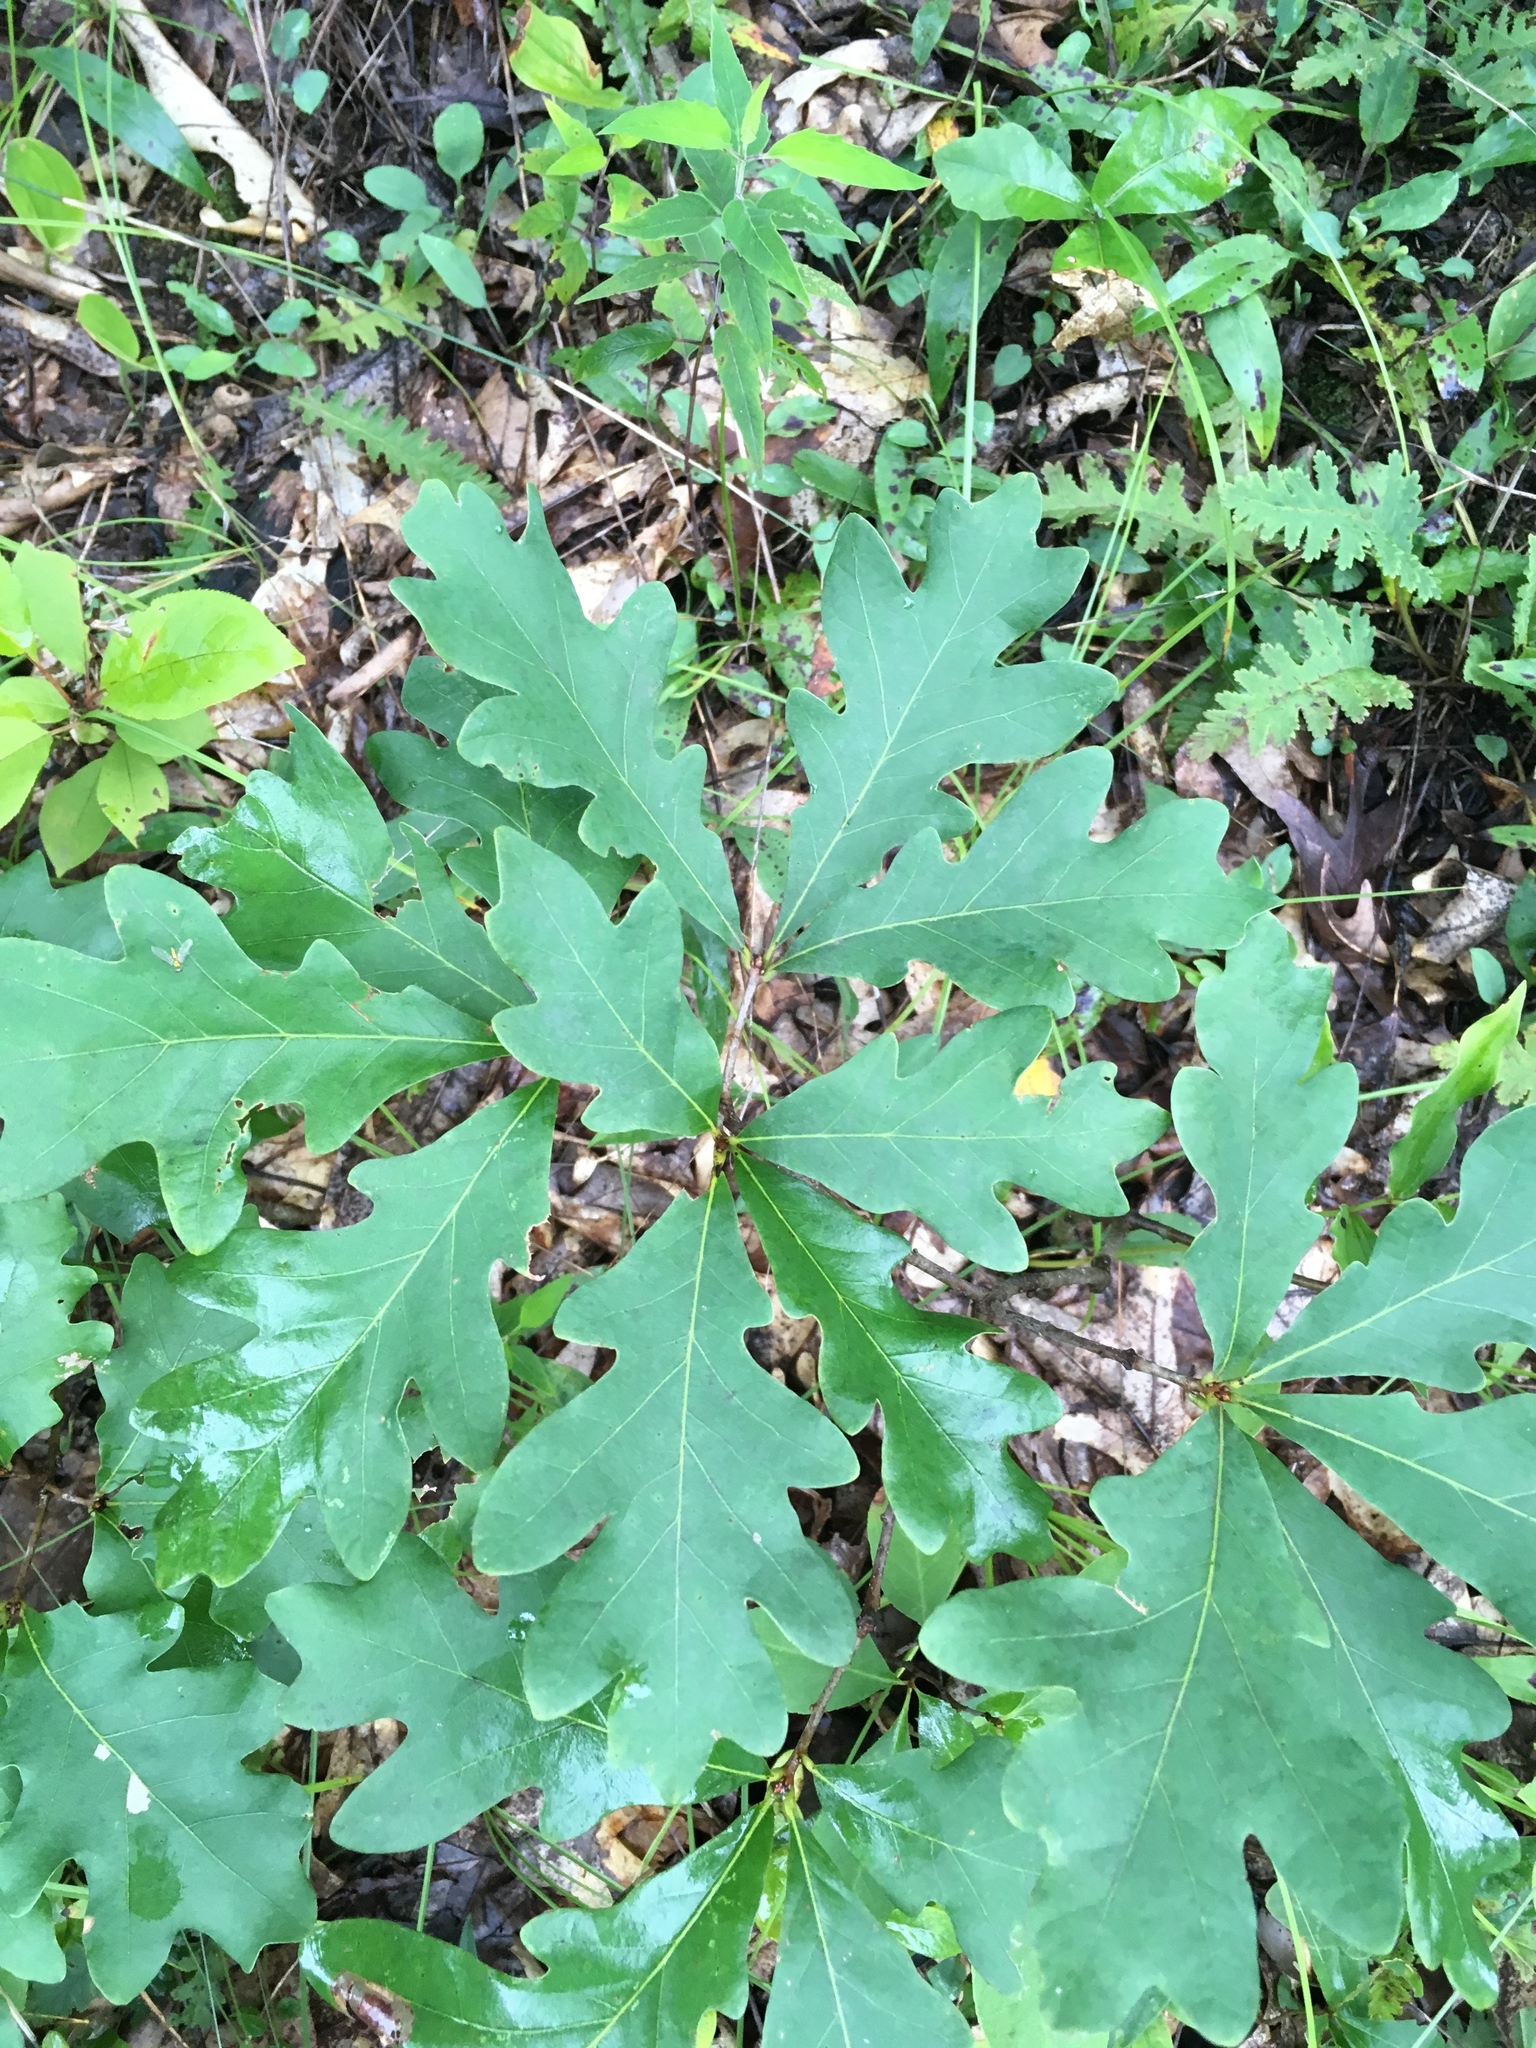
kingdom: Plantae
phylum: Tracheophyta
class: Magnoliopsida
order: Fagales
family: Fagaceae
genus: Quercus
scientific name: Quercus alba
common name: White oak
